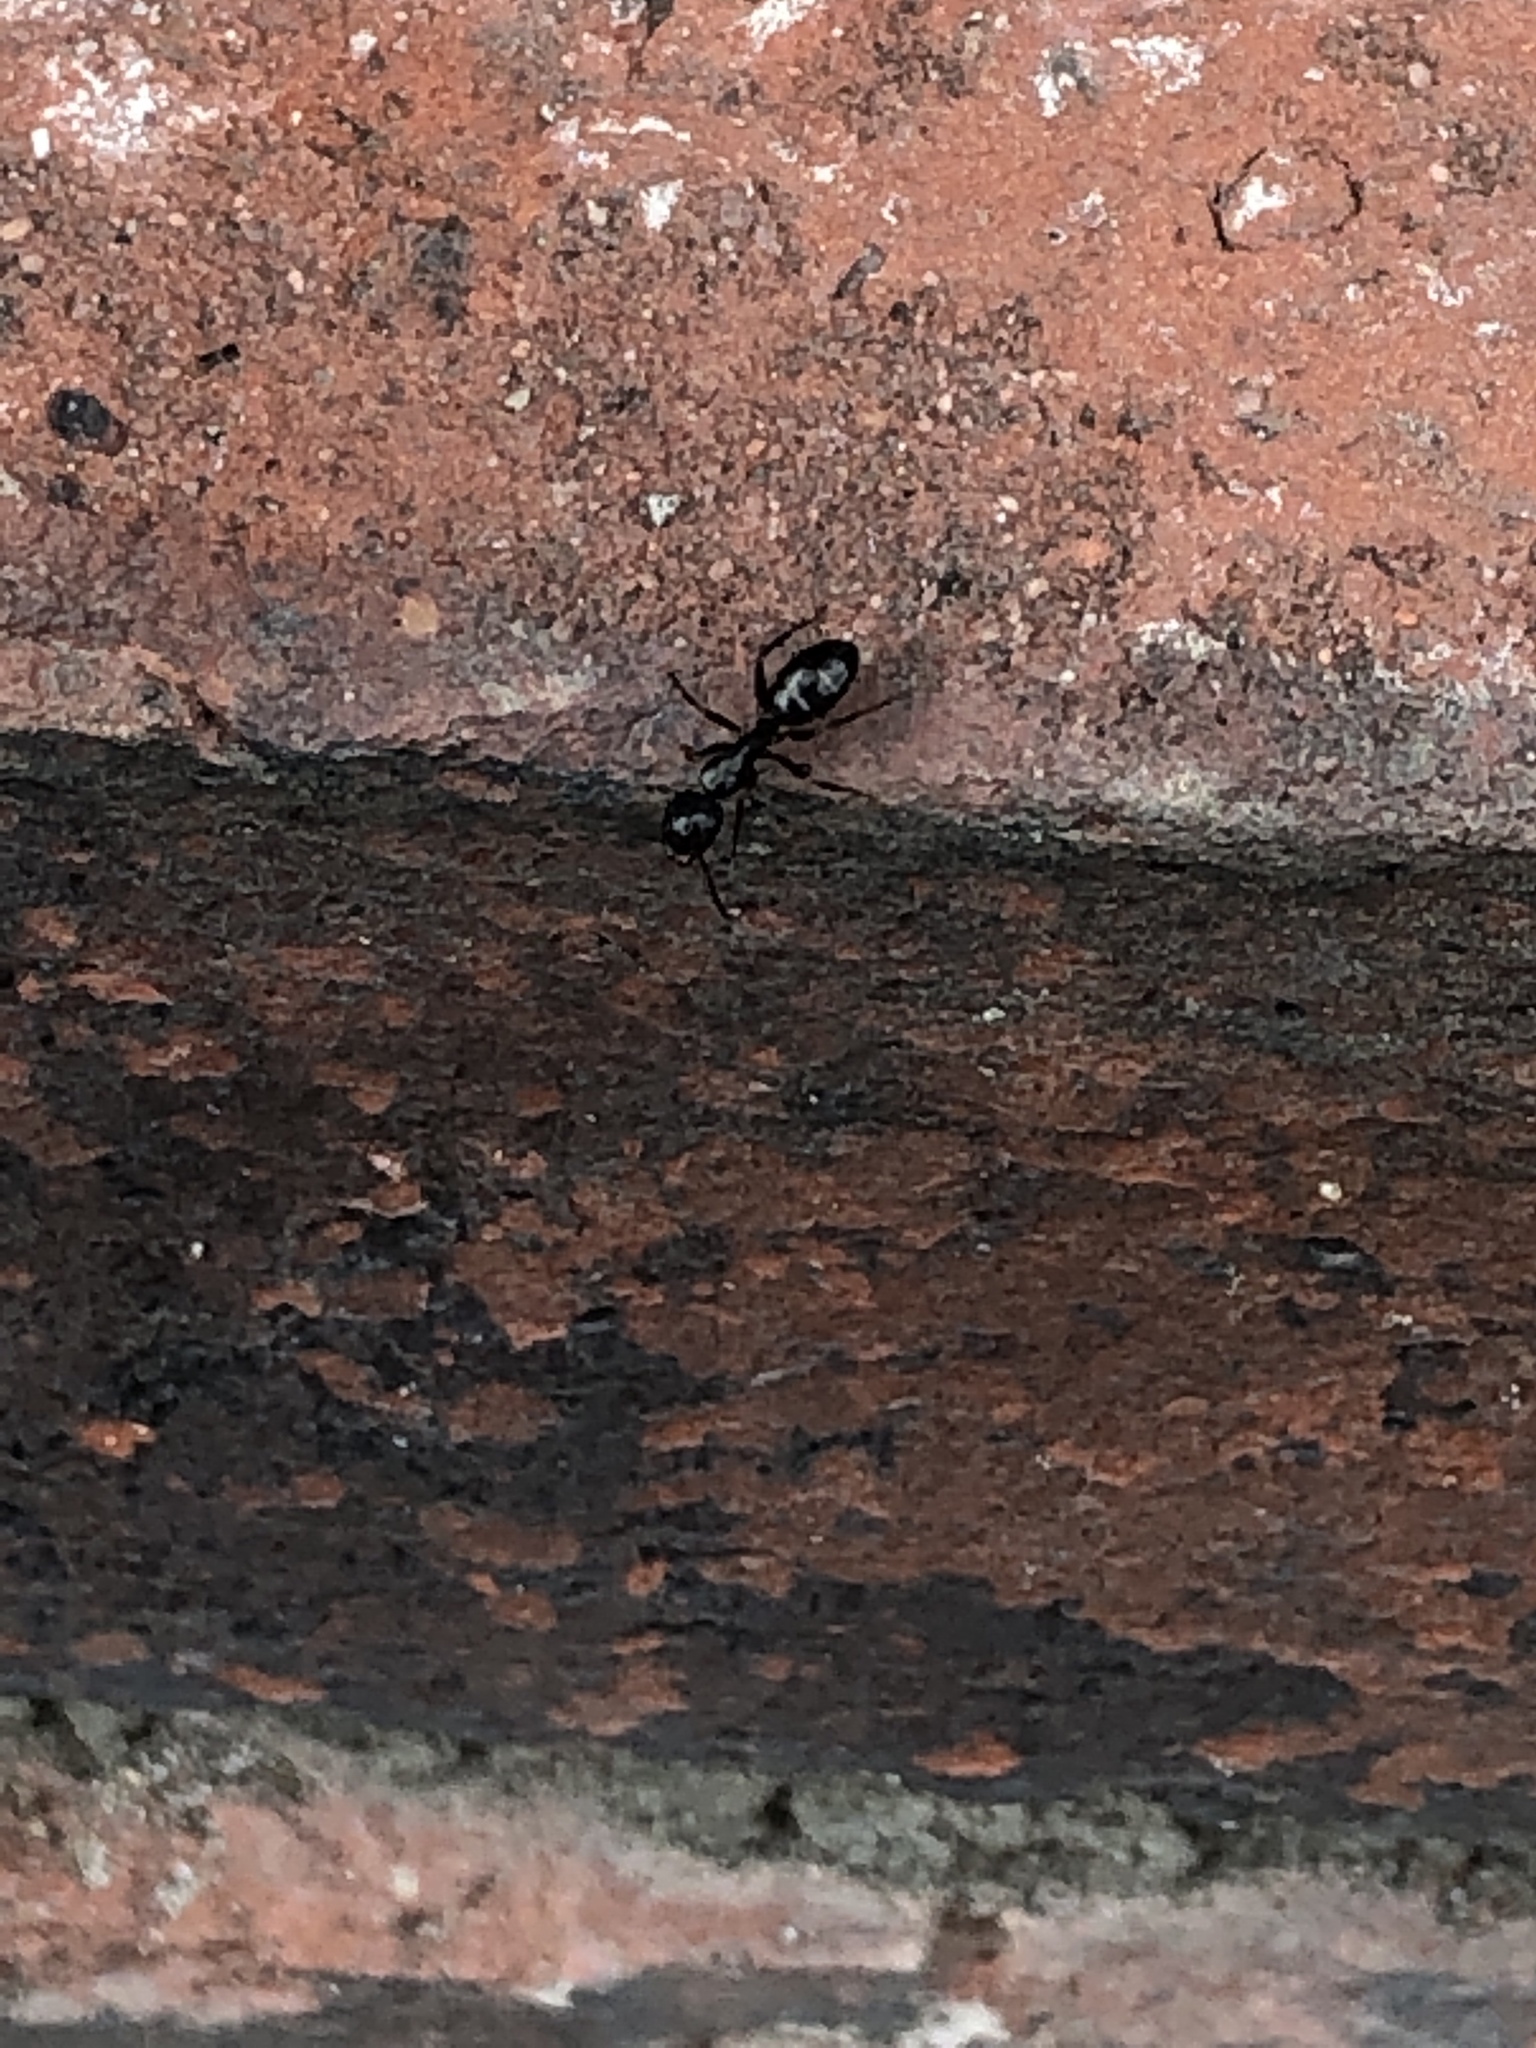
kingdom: Animalia
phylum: Arthropoda
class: Insecta
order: Hymenoptera
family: Formicidae
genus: Camponotus
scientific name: Camponotus fallax
